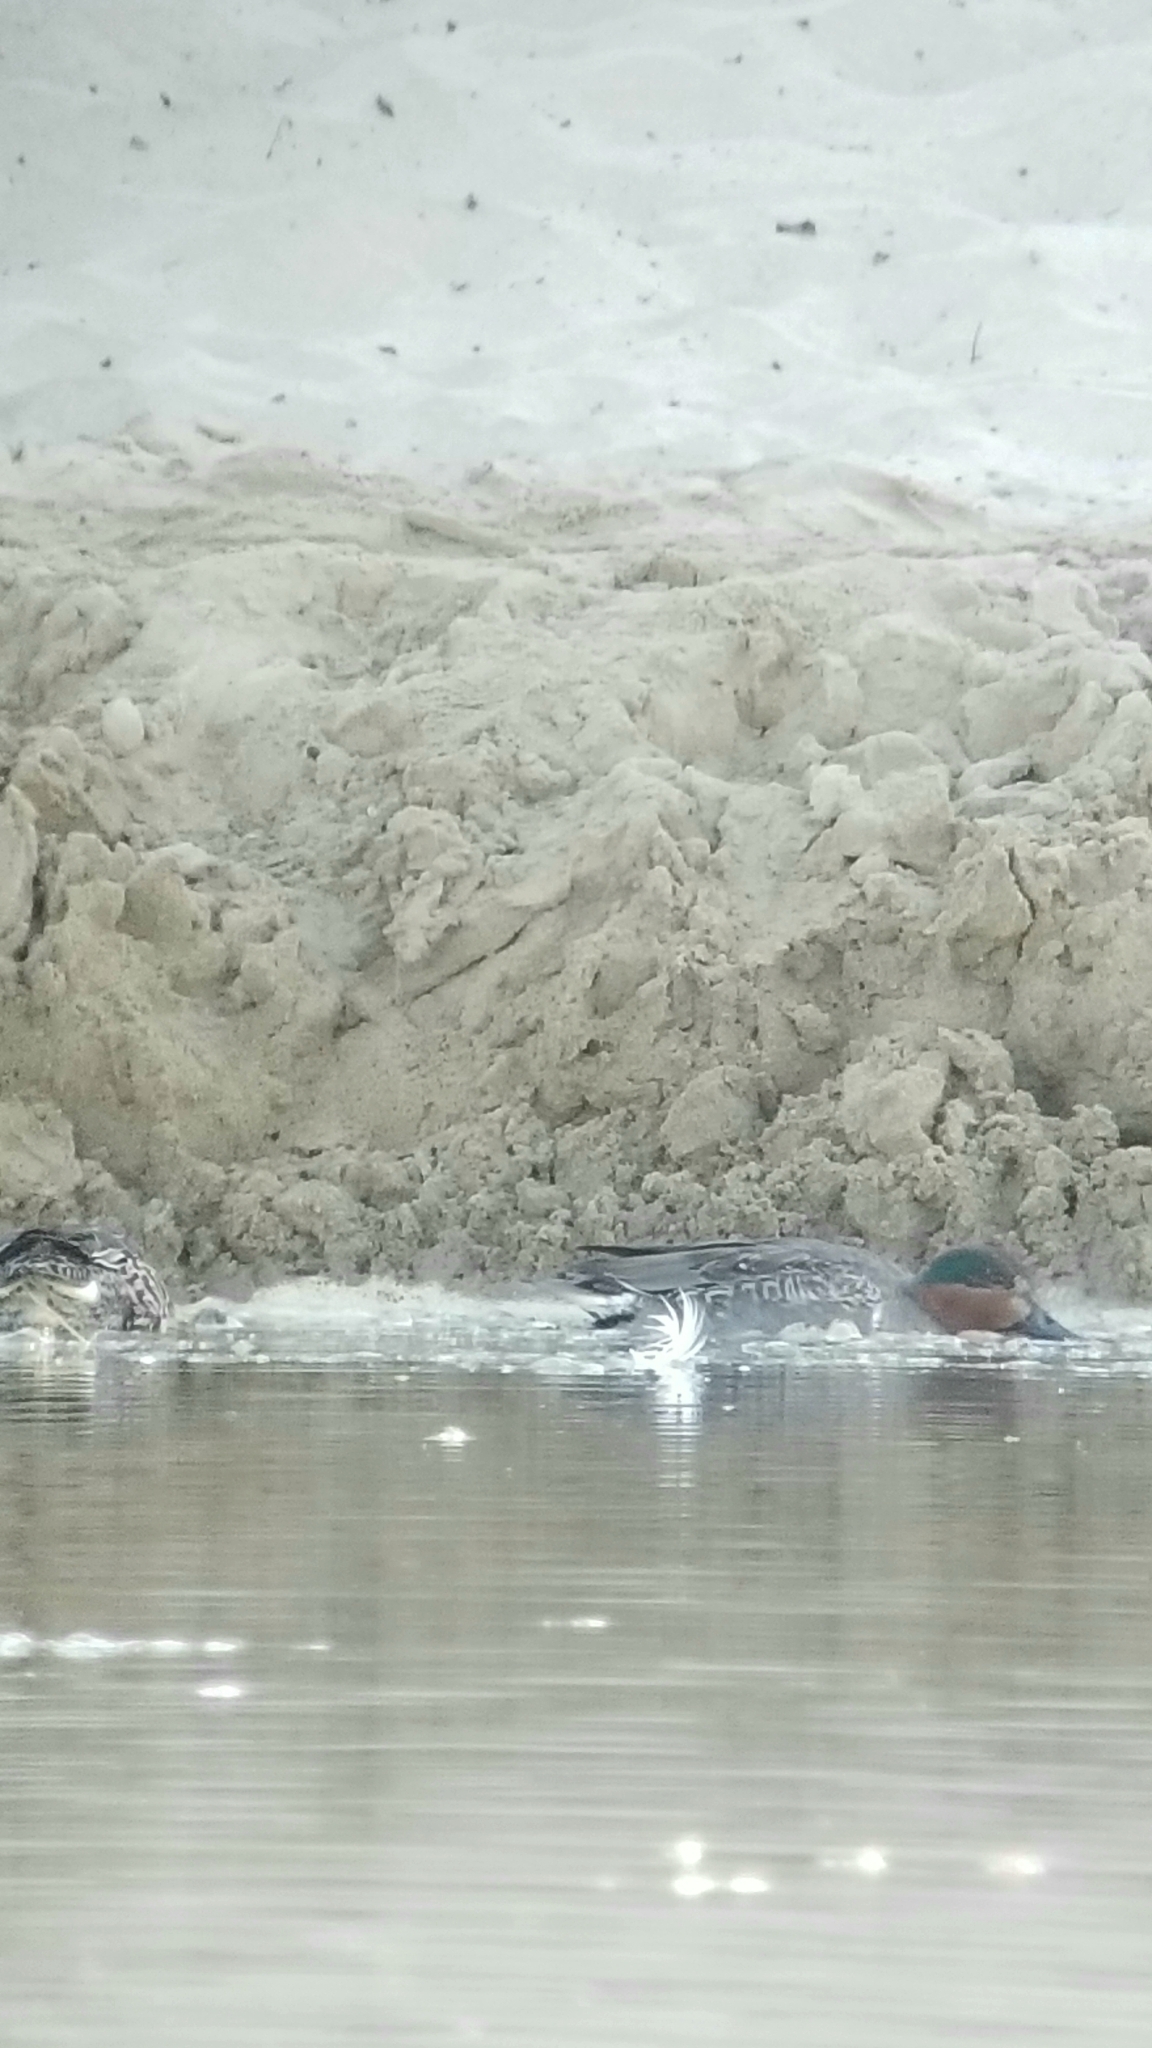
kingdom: Animalia
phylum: Chordata
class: Aves
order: Anseriformes
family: Anatidae
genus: Anas
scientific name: Anas crecca
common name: Eurasian teal
